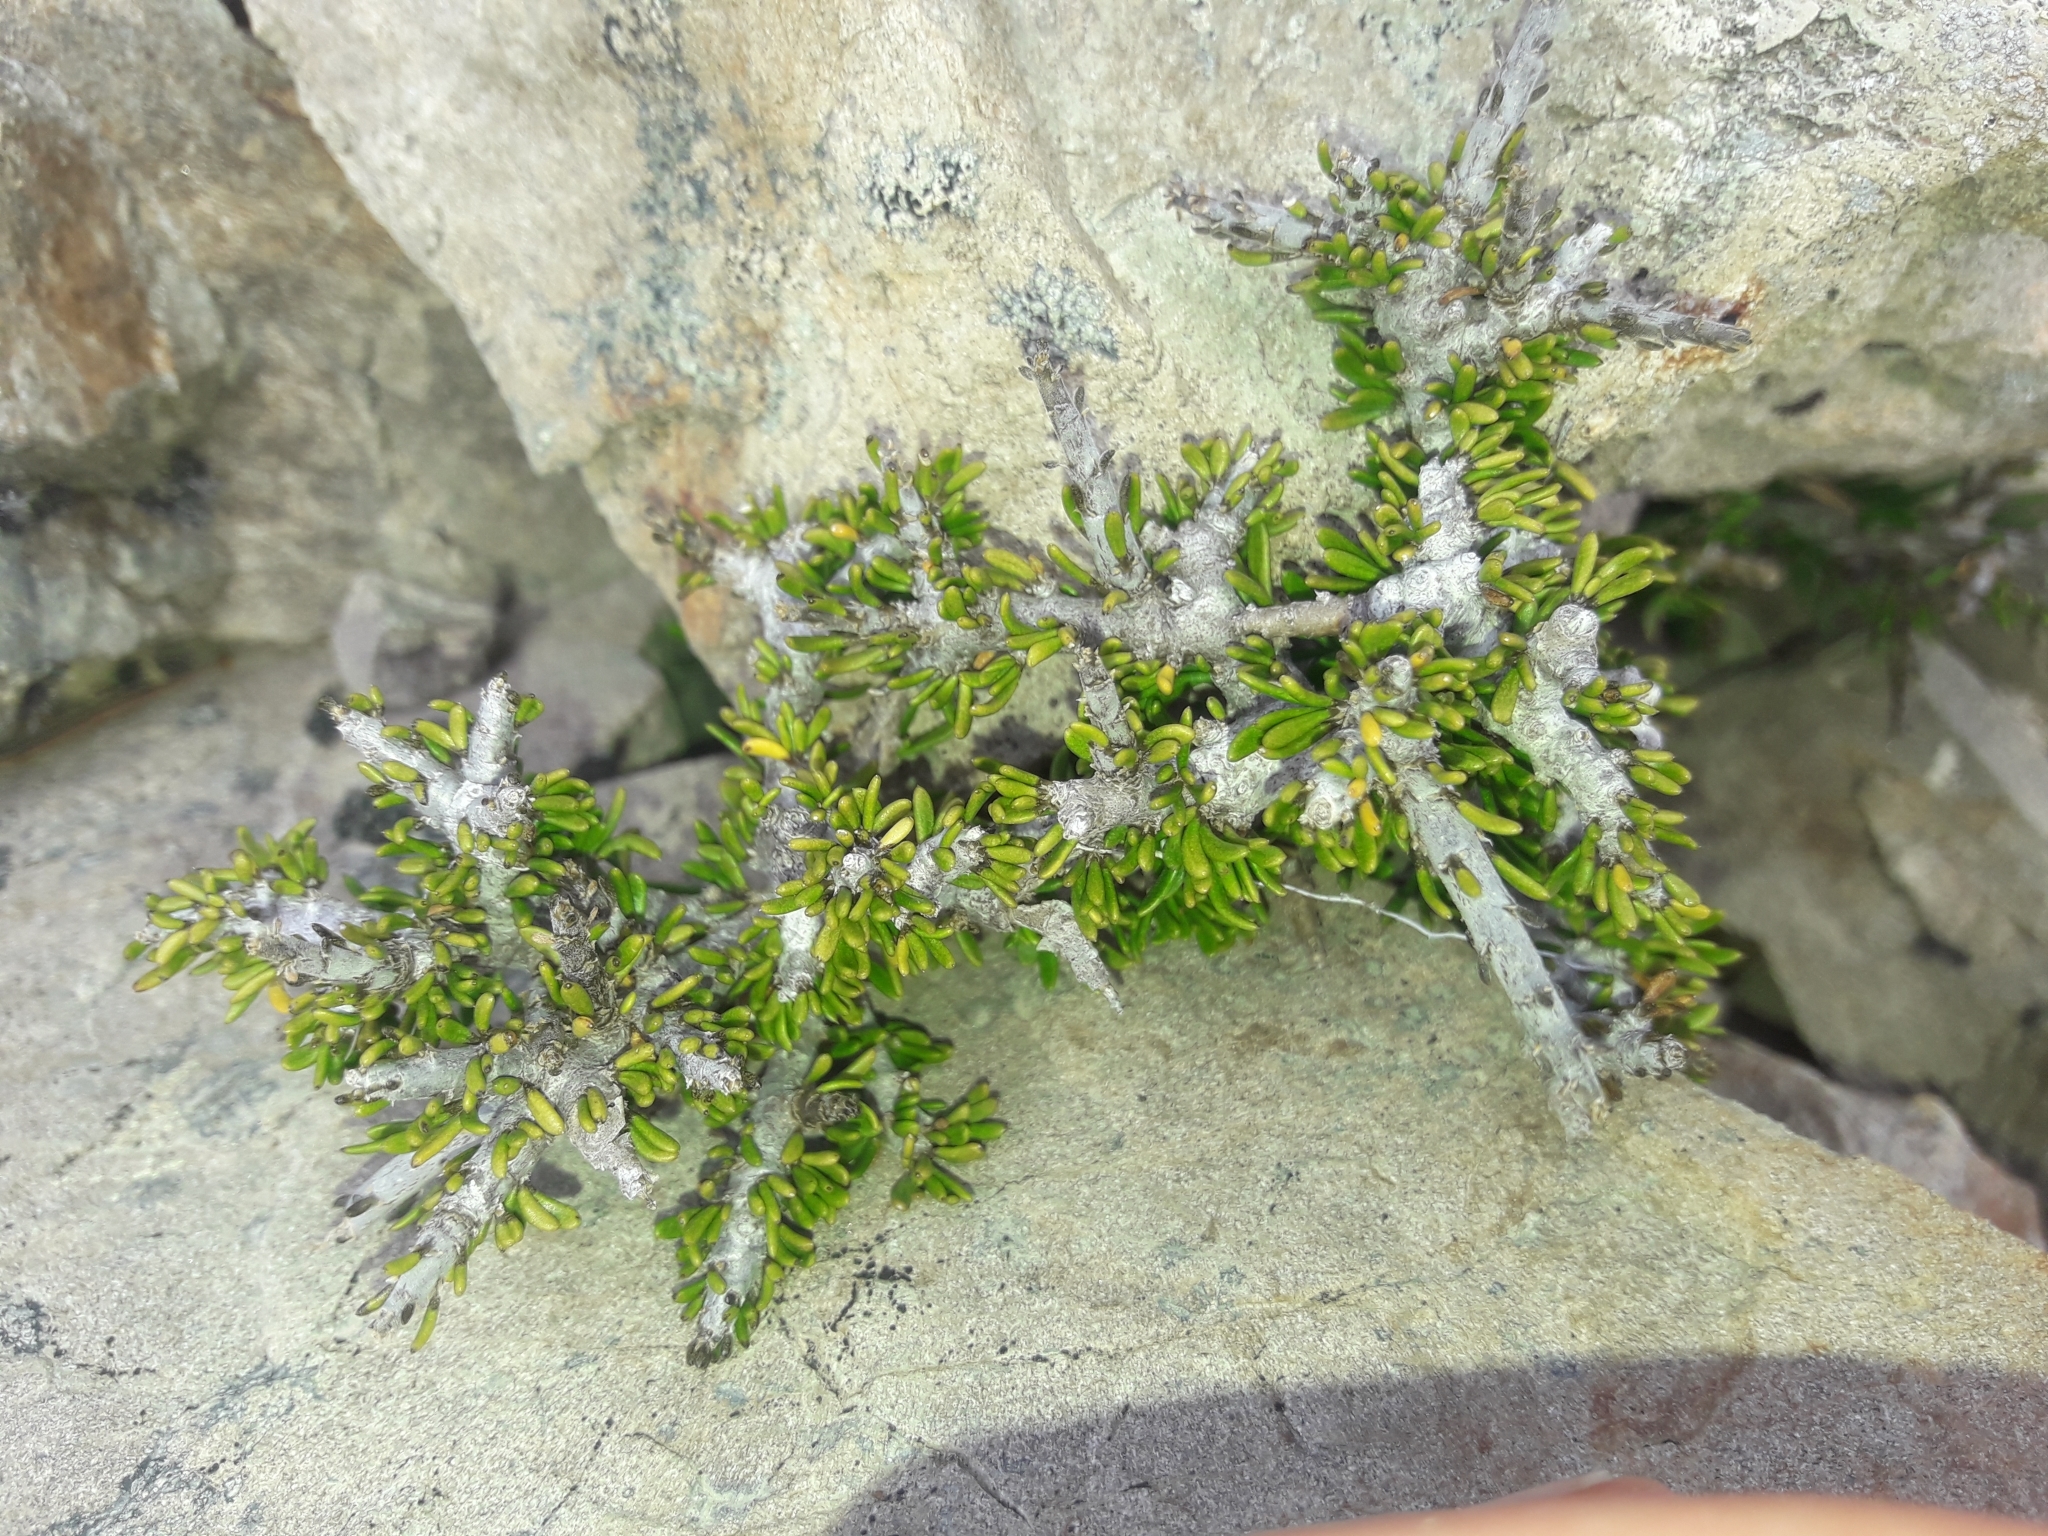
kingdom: Plantae
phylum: Tracheophyta
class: Magnoliopsida
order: Malpighiales
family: Violaceae
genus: Melicytus
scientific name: Melicytus alpinus
